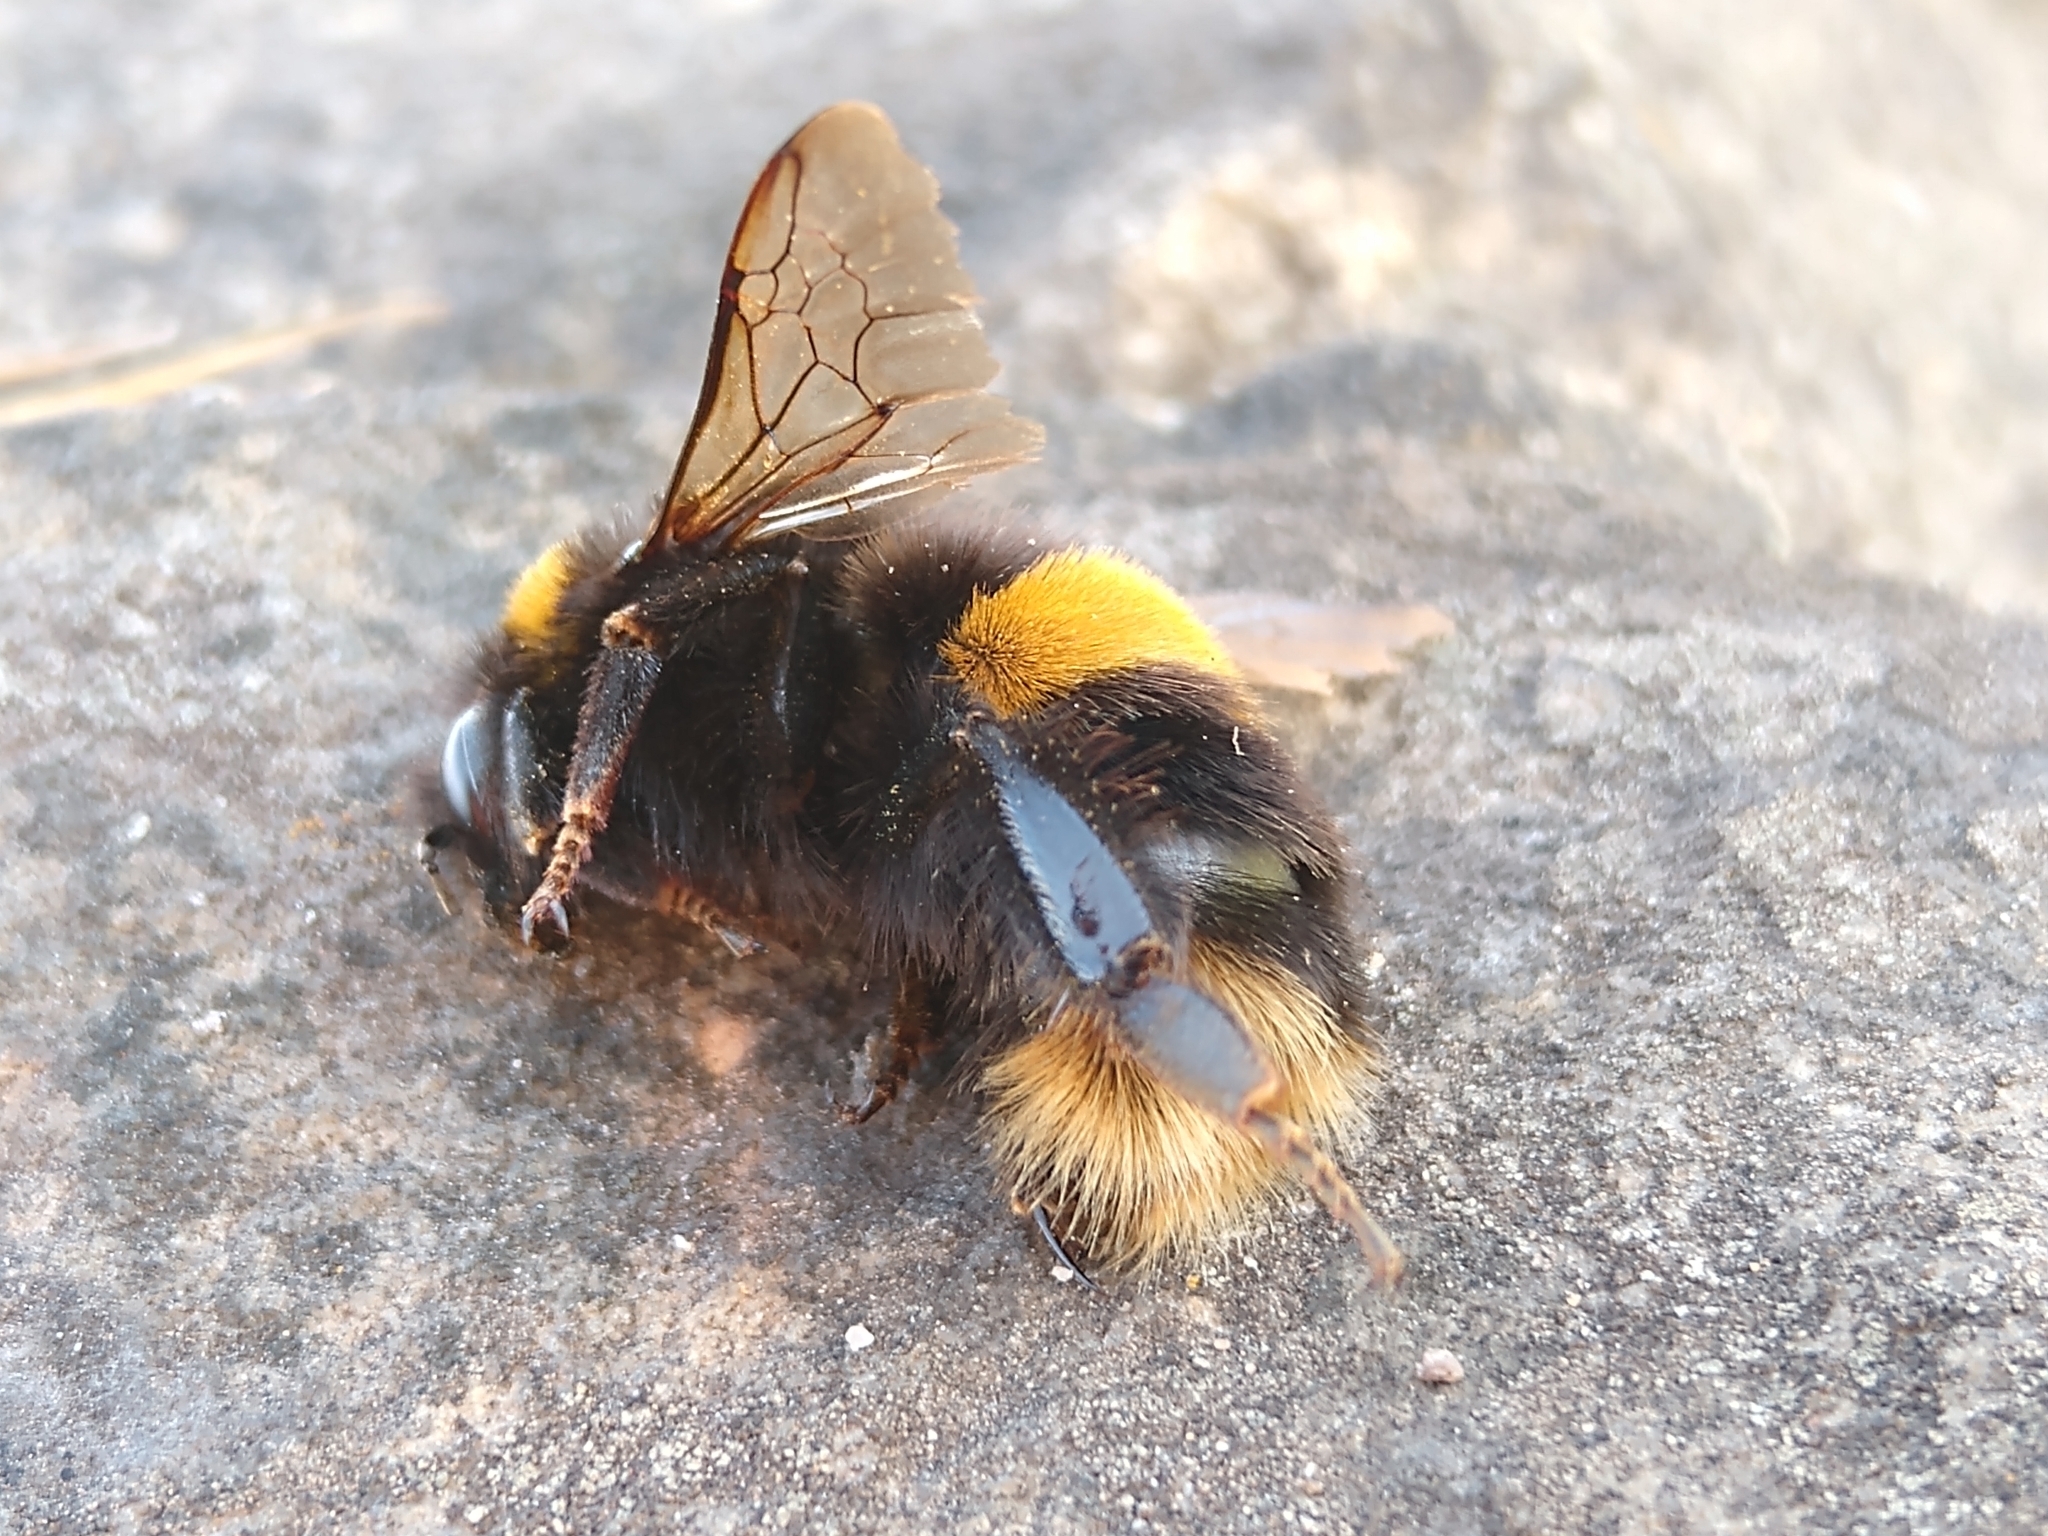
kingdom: Animalia
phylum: Arthropoda
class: Insecta
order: Hymenoptera
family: Apidae
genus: Bombus
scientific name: Bombus terrestris
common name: Buff-tailed bumblebee
